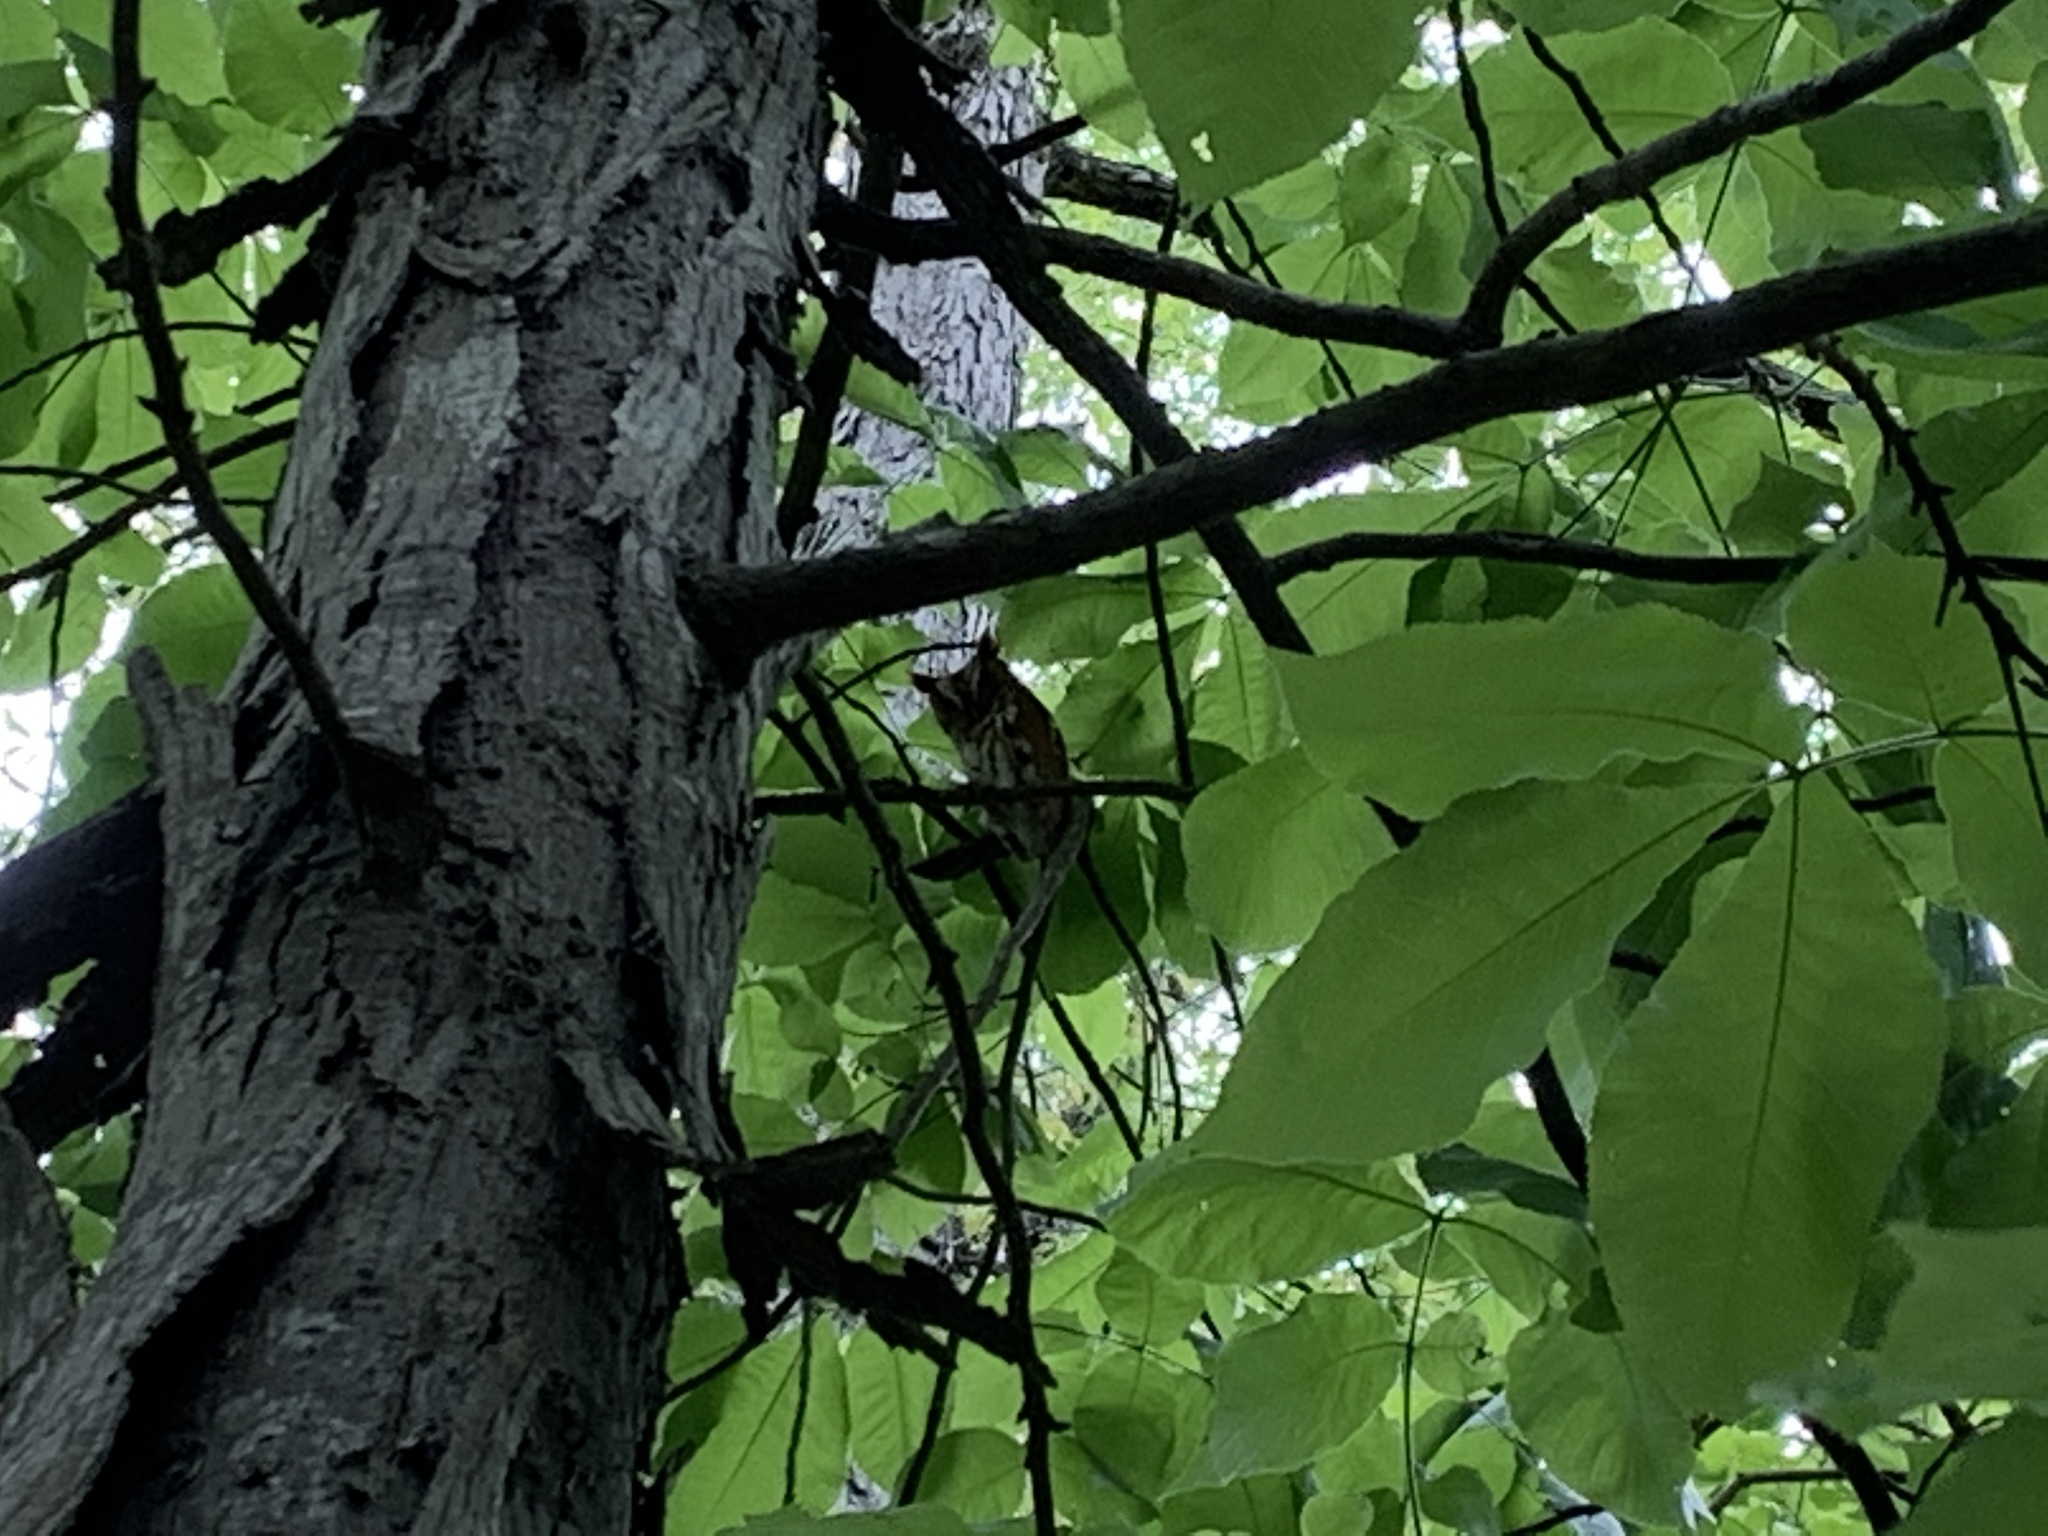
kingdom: Animalia
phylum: Chordata
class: Aves
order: Strigiformes
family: Strigidae
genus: Megascops
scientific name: Megascops asio
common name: Eastern screech-owl
